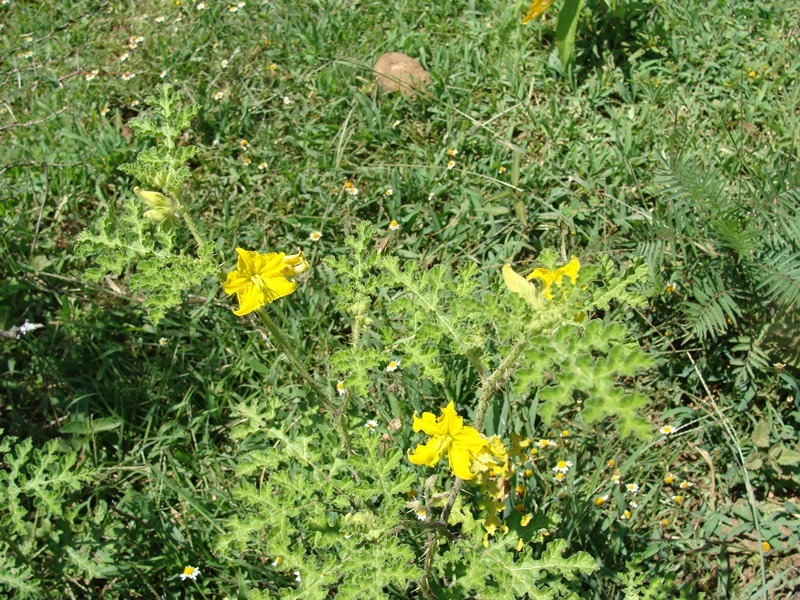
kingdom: Plantae
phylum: Tracheophyta
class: Magnoliopsida
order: Solanales
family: Solanaceae
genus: Solanum
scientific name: Solanum angustifolium
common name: Buffalobur nightshade
